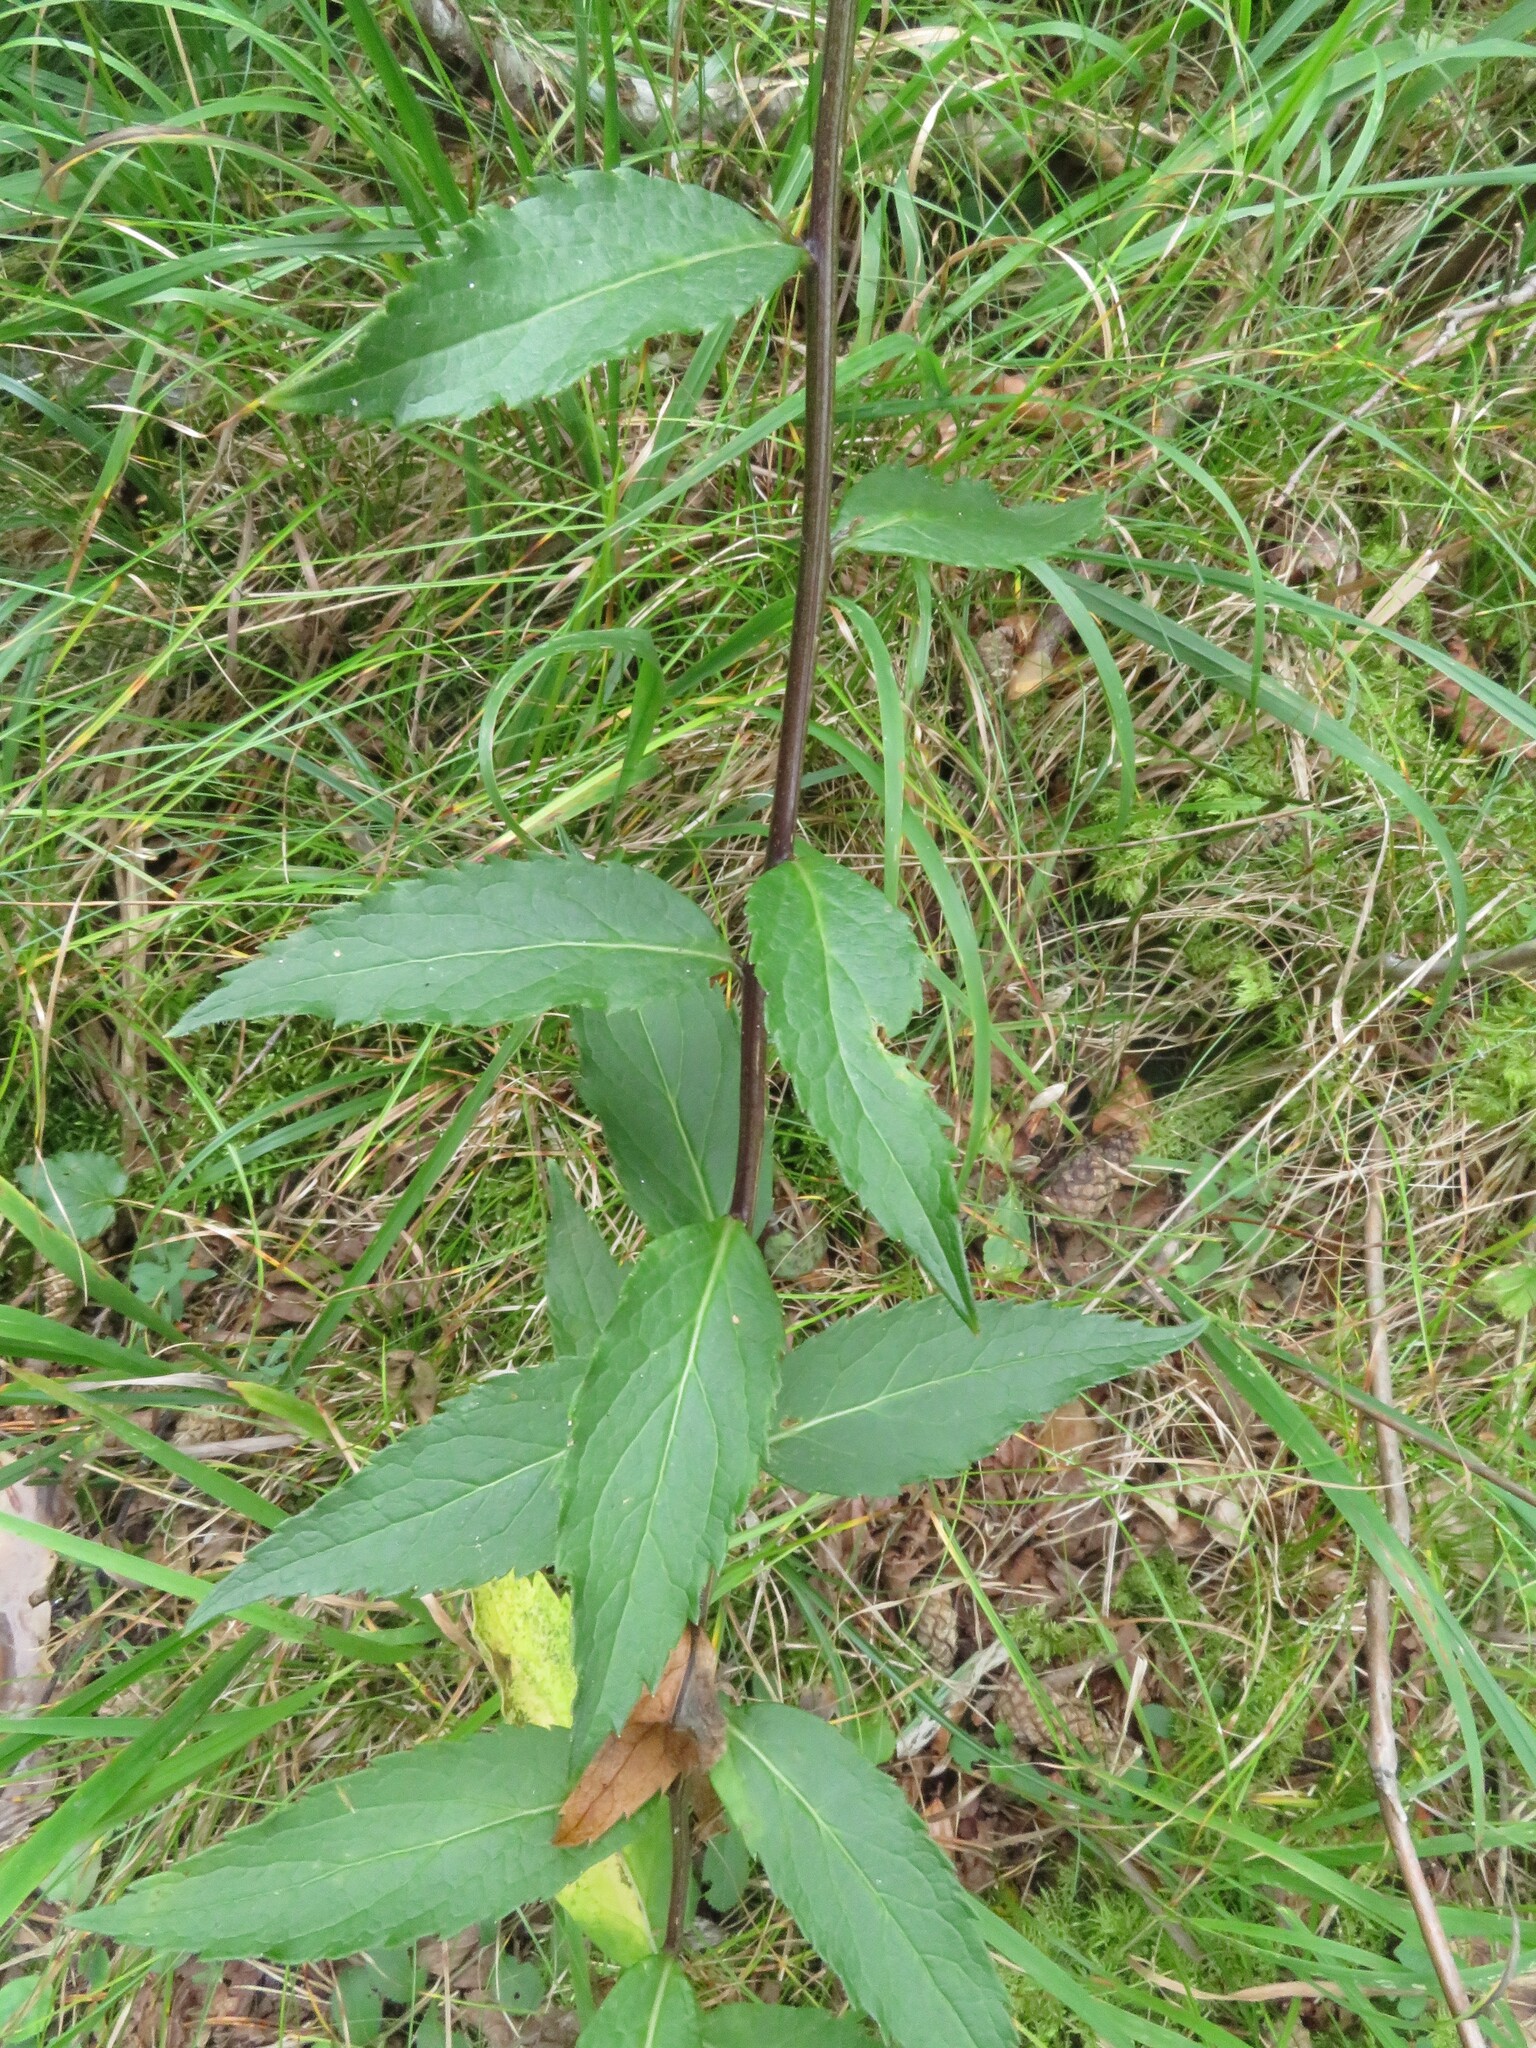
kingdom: Plantae
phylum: Tracheophyta
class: Magnoliopsida
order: Asterales
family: Campanulaceae
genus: Adenophora
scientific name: Adenophora liliifolia
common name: Lilyleaf ladybells
